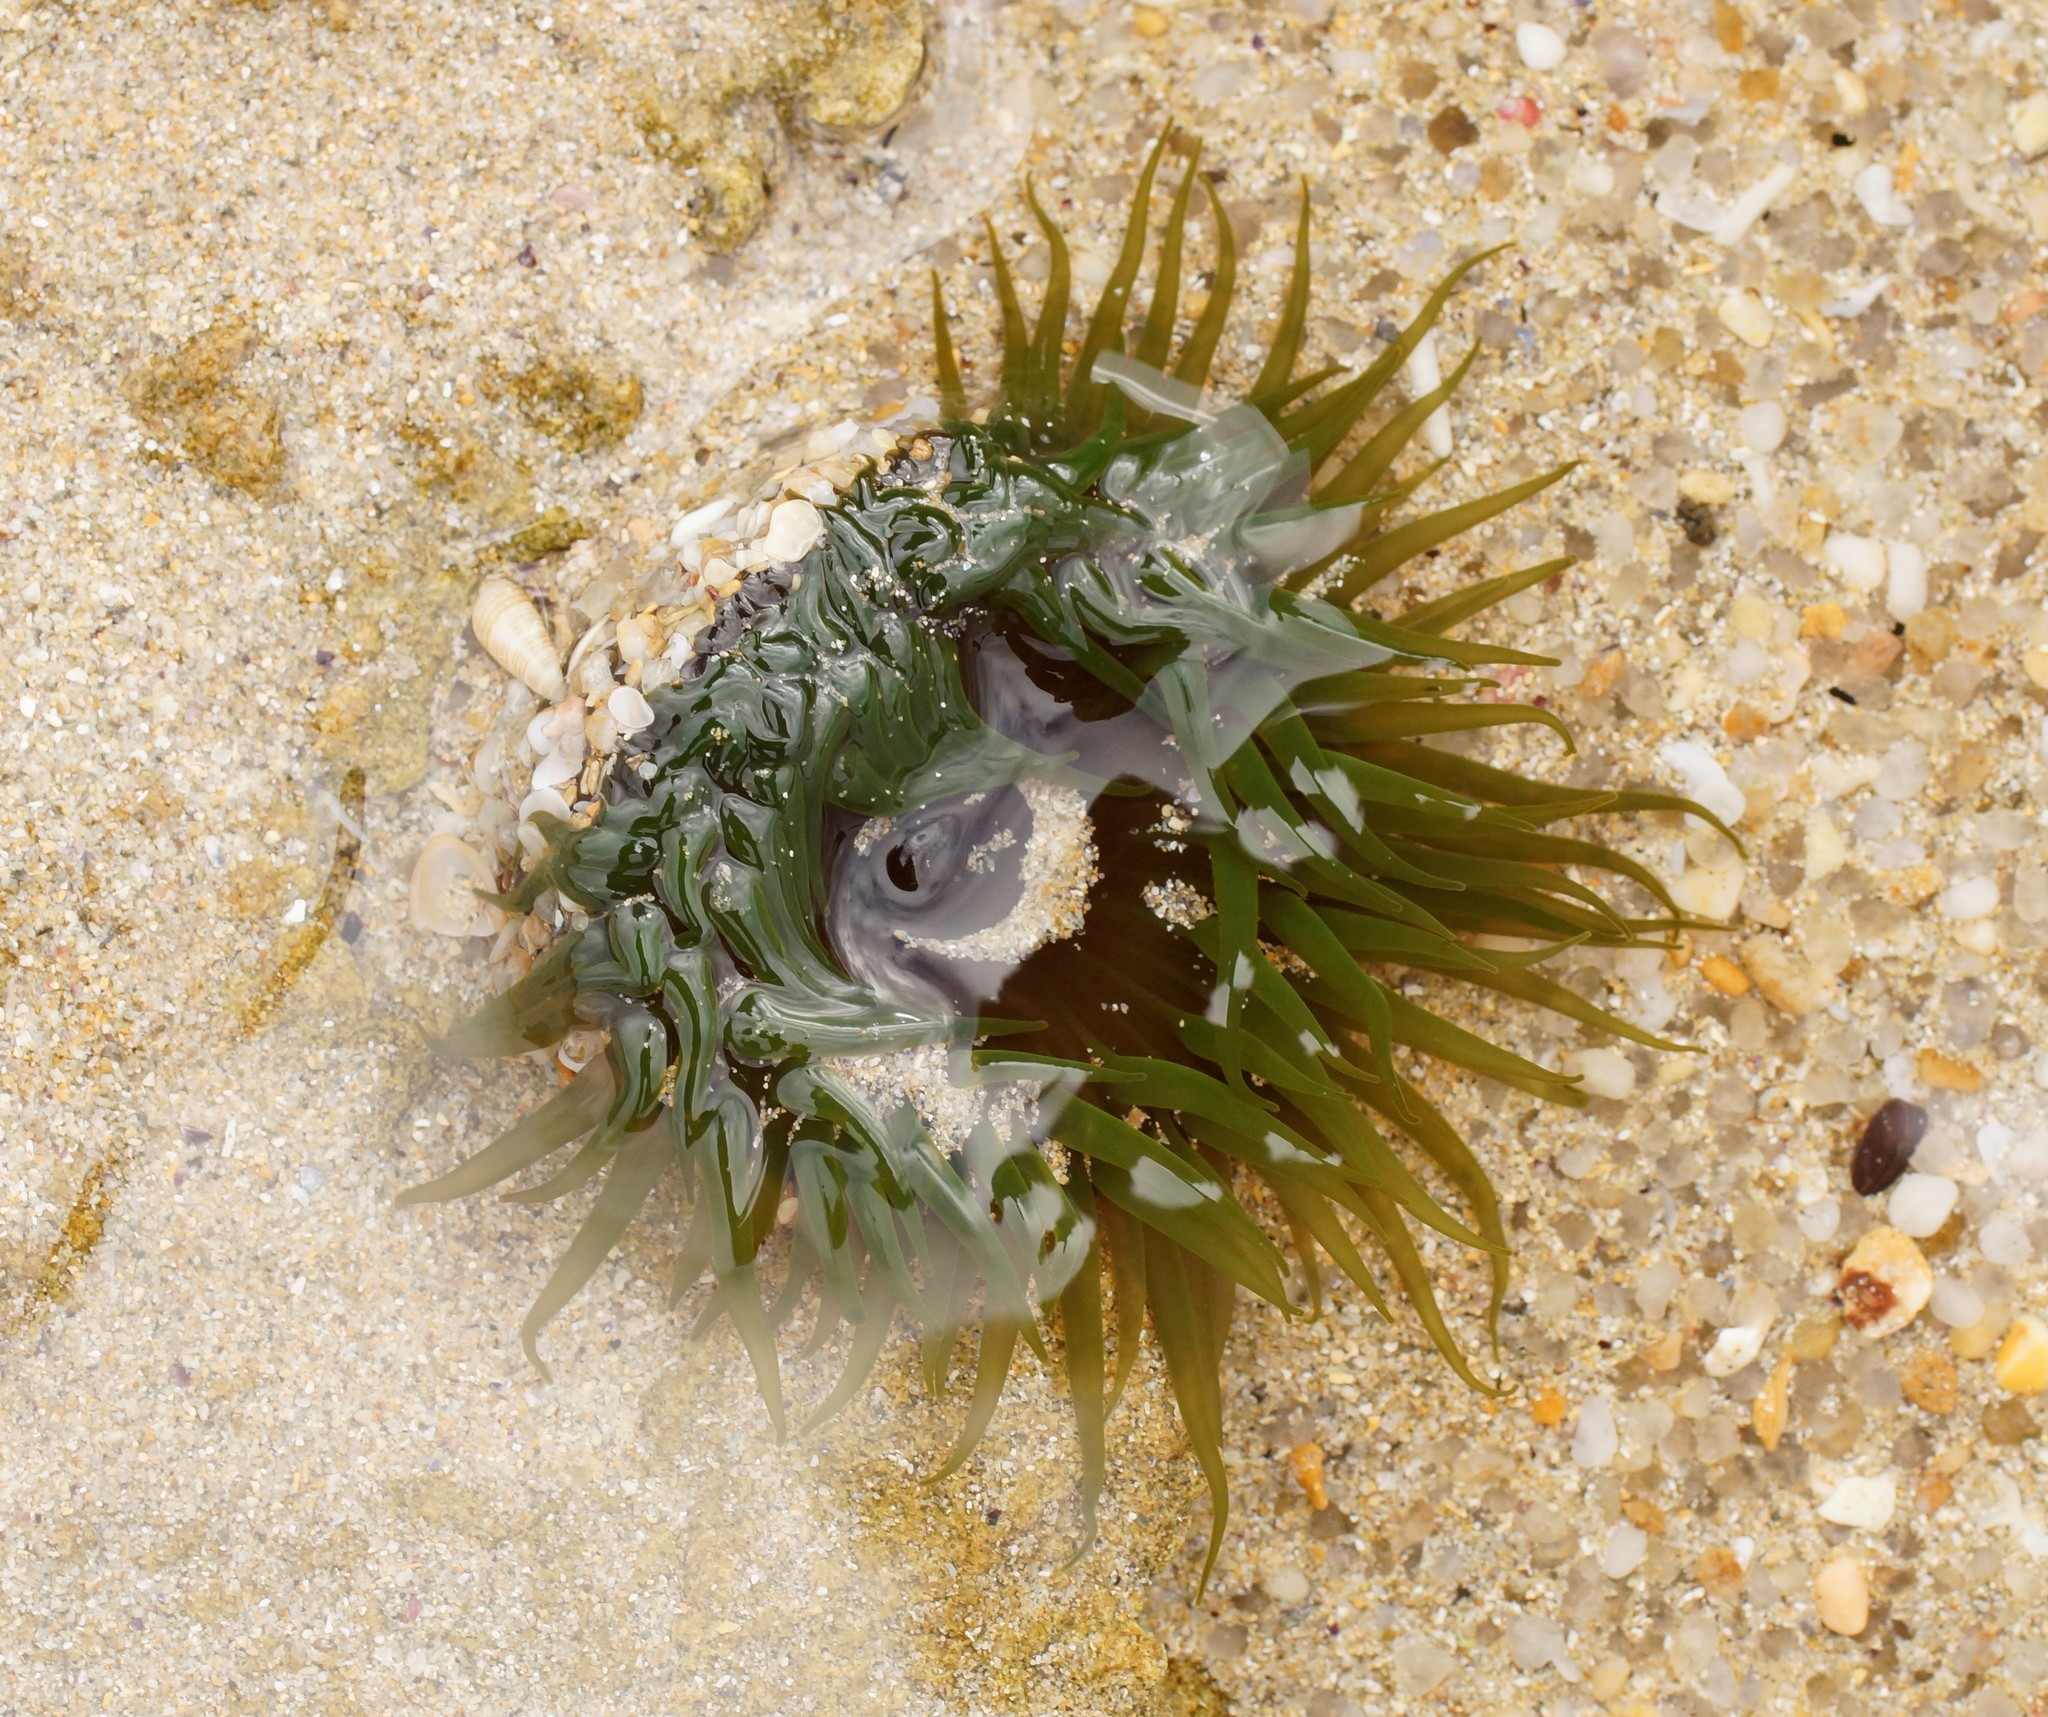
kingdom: Animalia
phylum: Cnidaria
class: Anthozoa
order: Actiniaria
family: Actiniidae
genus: Aulactinia
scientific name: Aulactinia veratra
